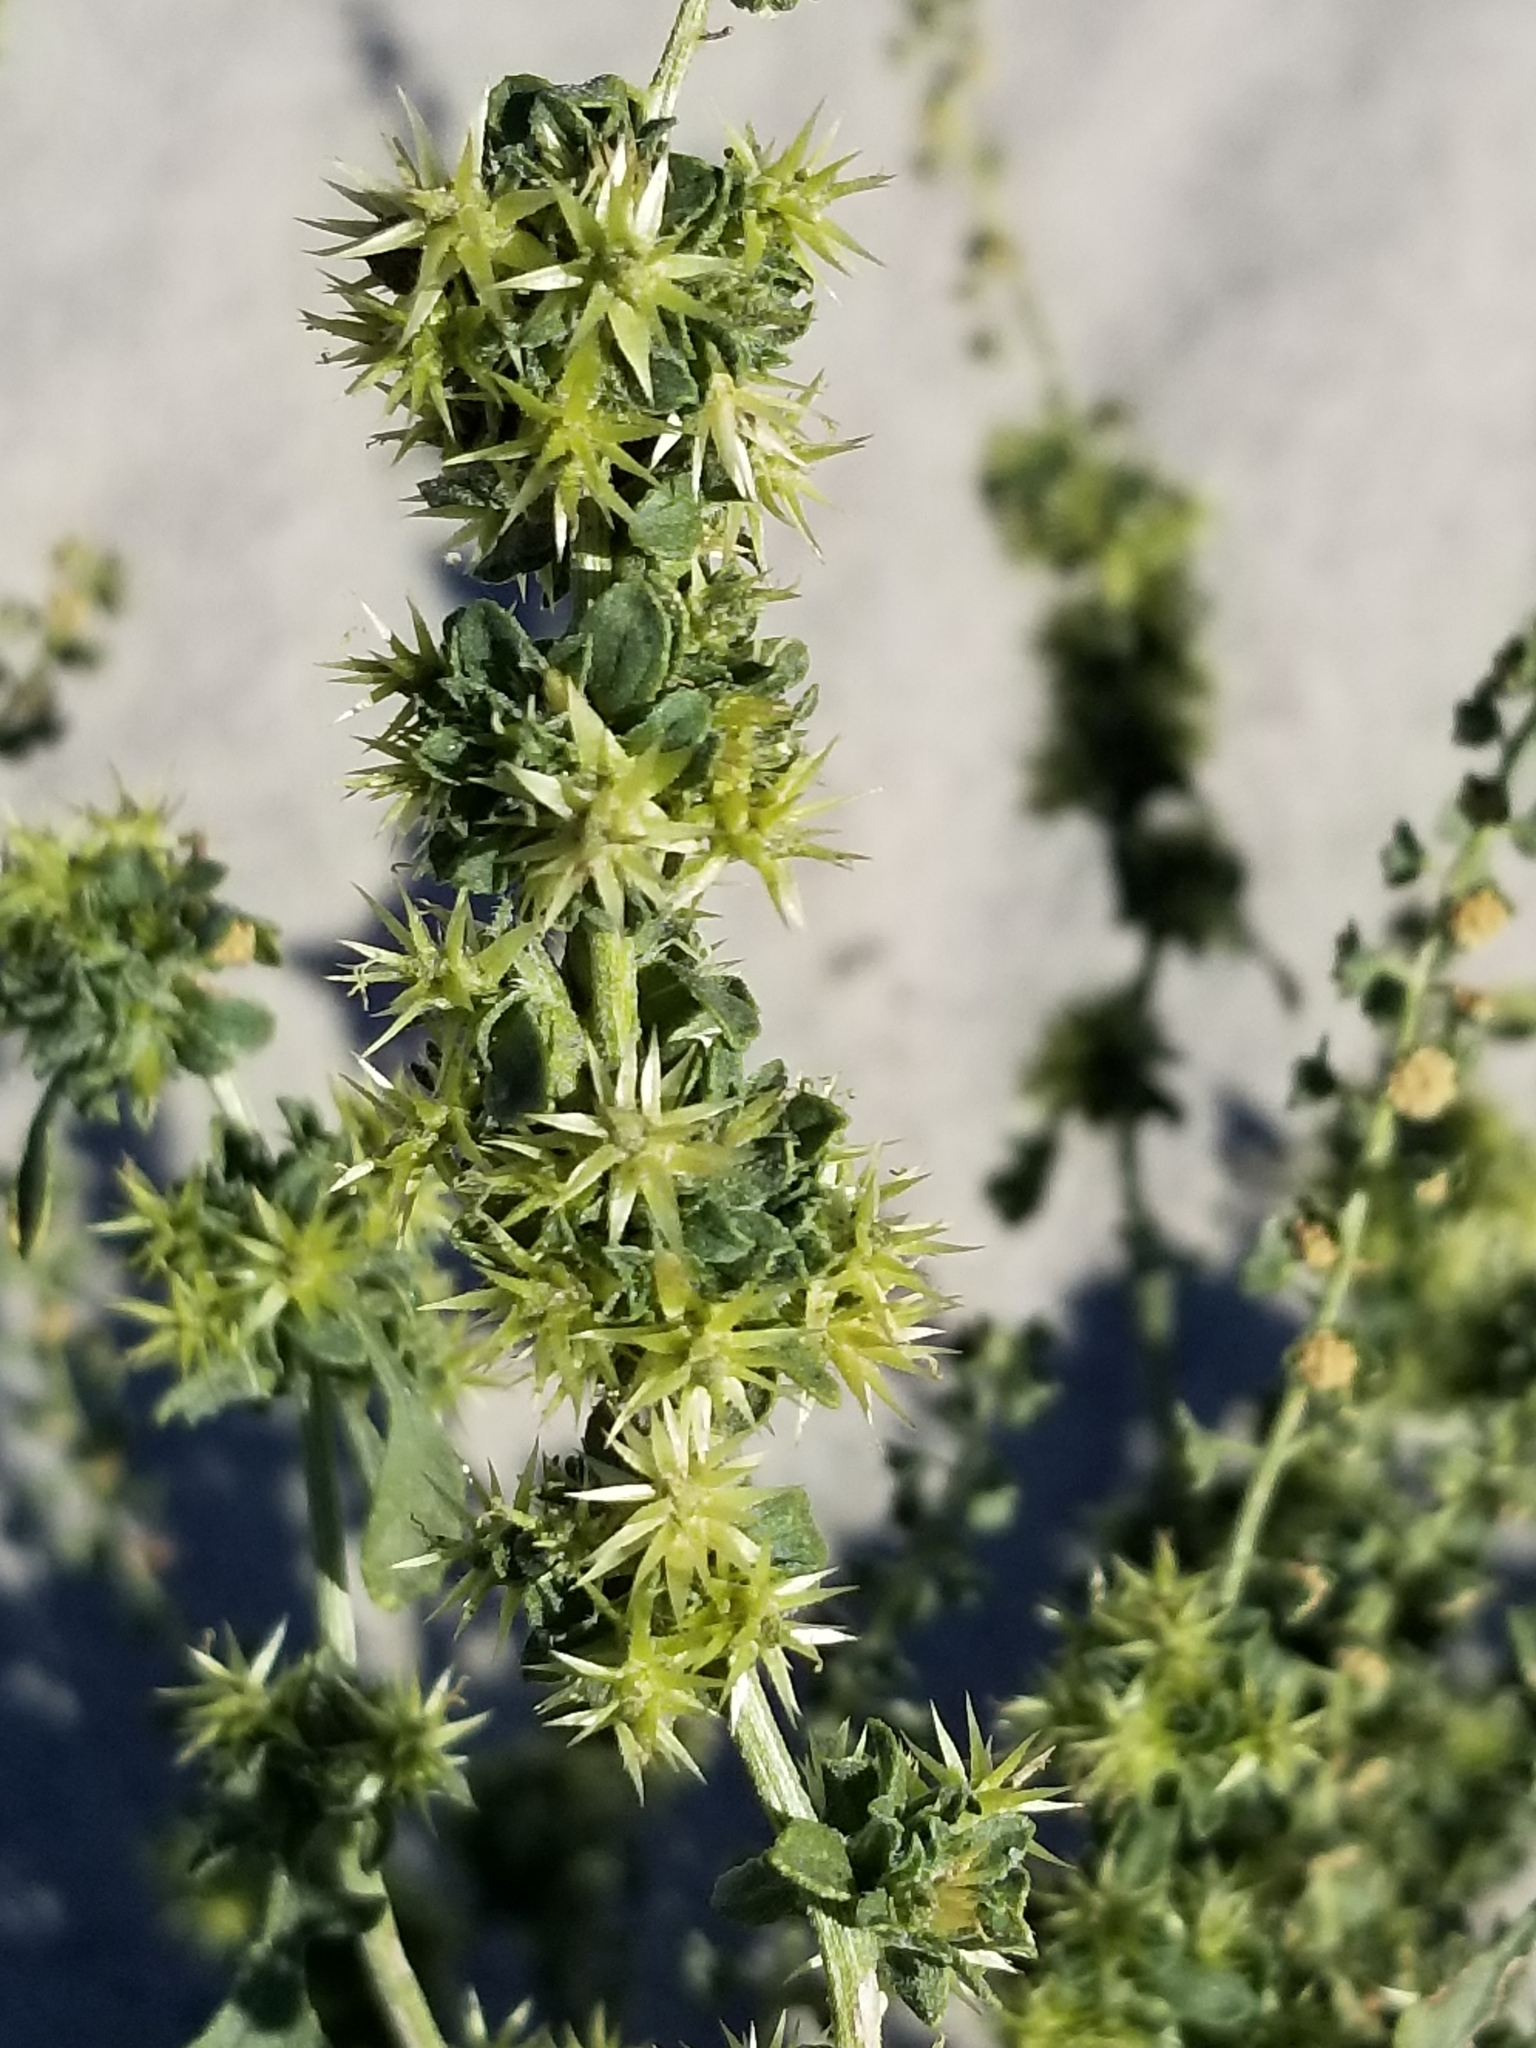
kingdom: Plantae
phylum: Tracheophyta
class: Magnoliopsida
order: Asterales
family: Asteraceae
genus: Ambrosia
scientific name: Ambrosia dumosa
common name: Bur-sage
